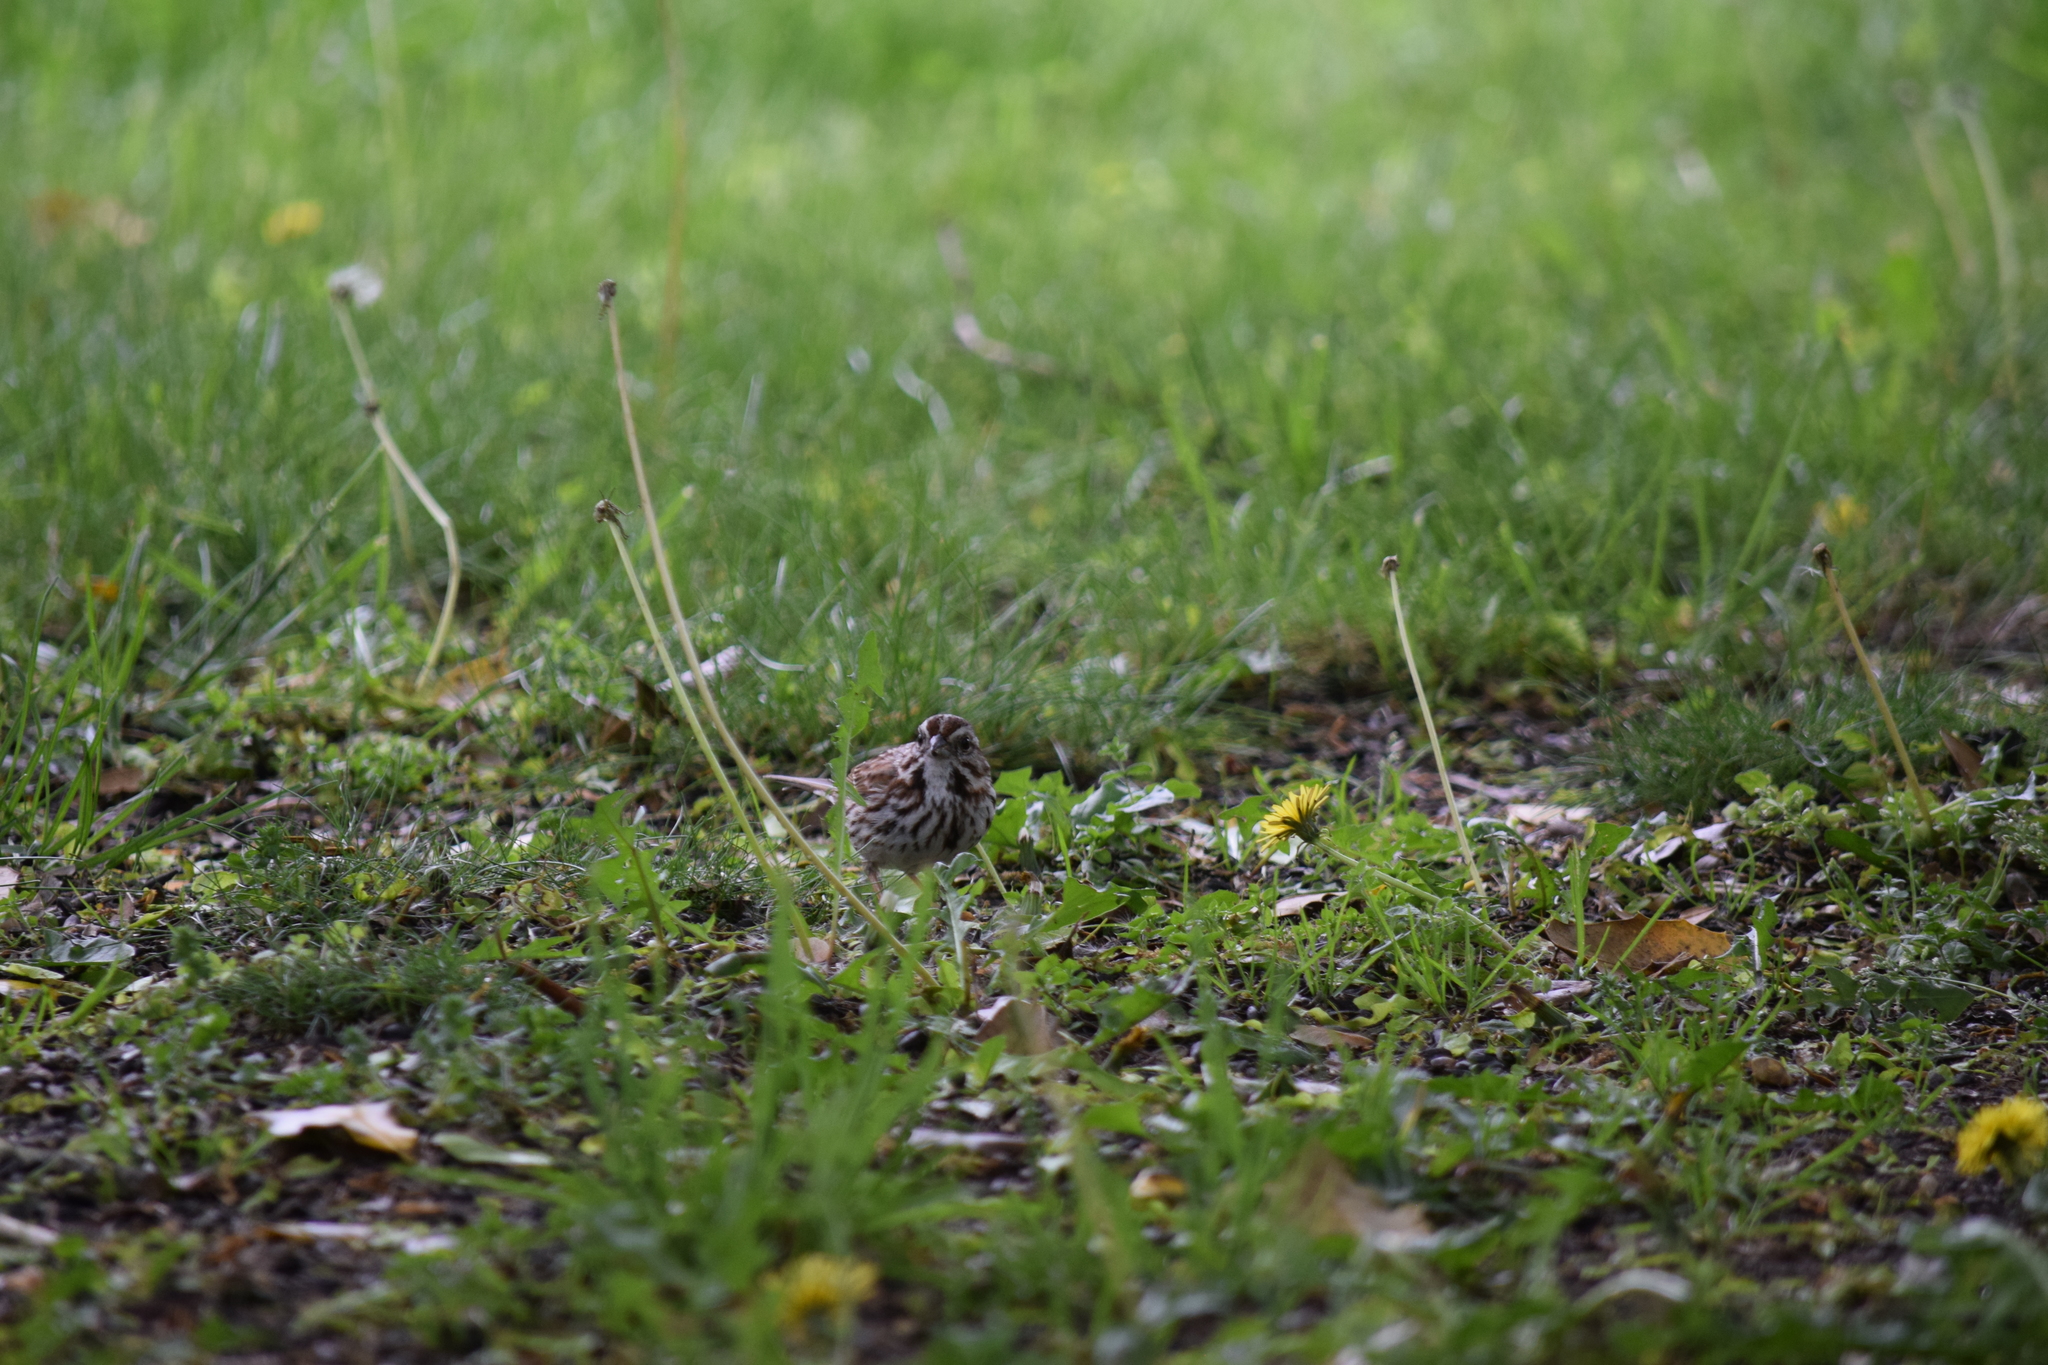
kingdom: Animalia
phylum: Chordata
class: Aves
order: Passeriformes
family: Passerellidae
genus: Melospiza
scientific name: Melospiza melodia
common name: Song sparrow
